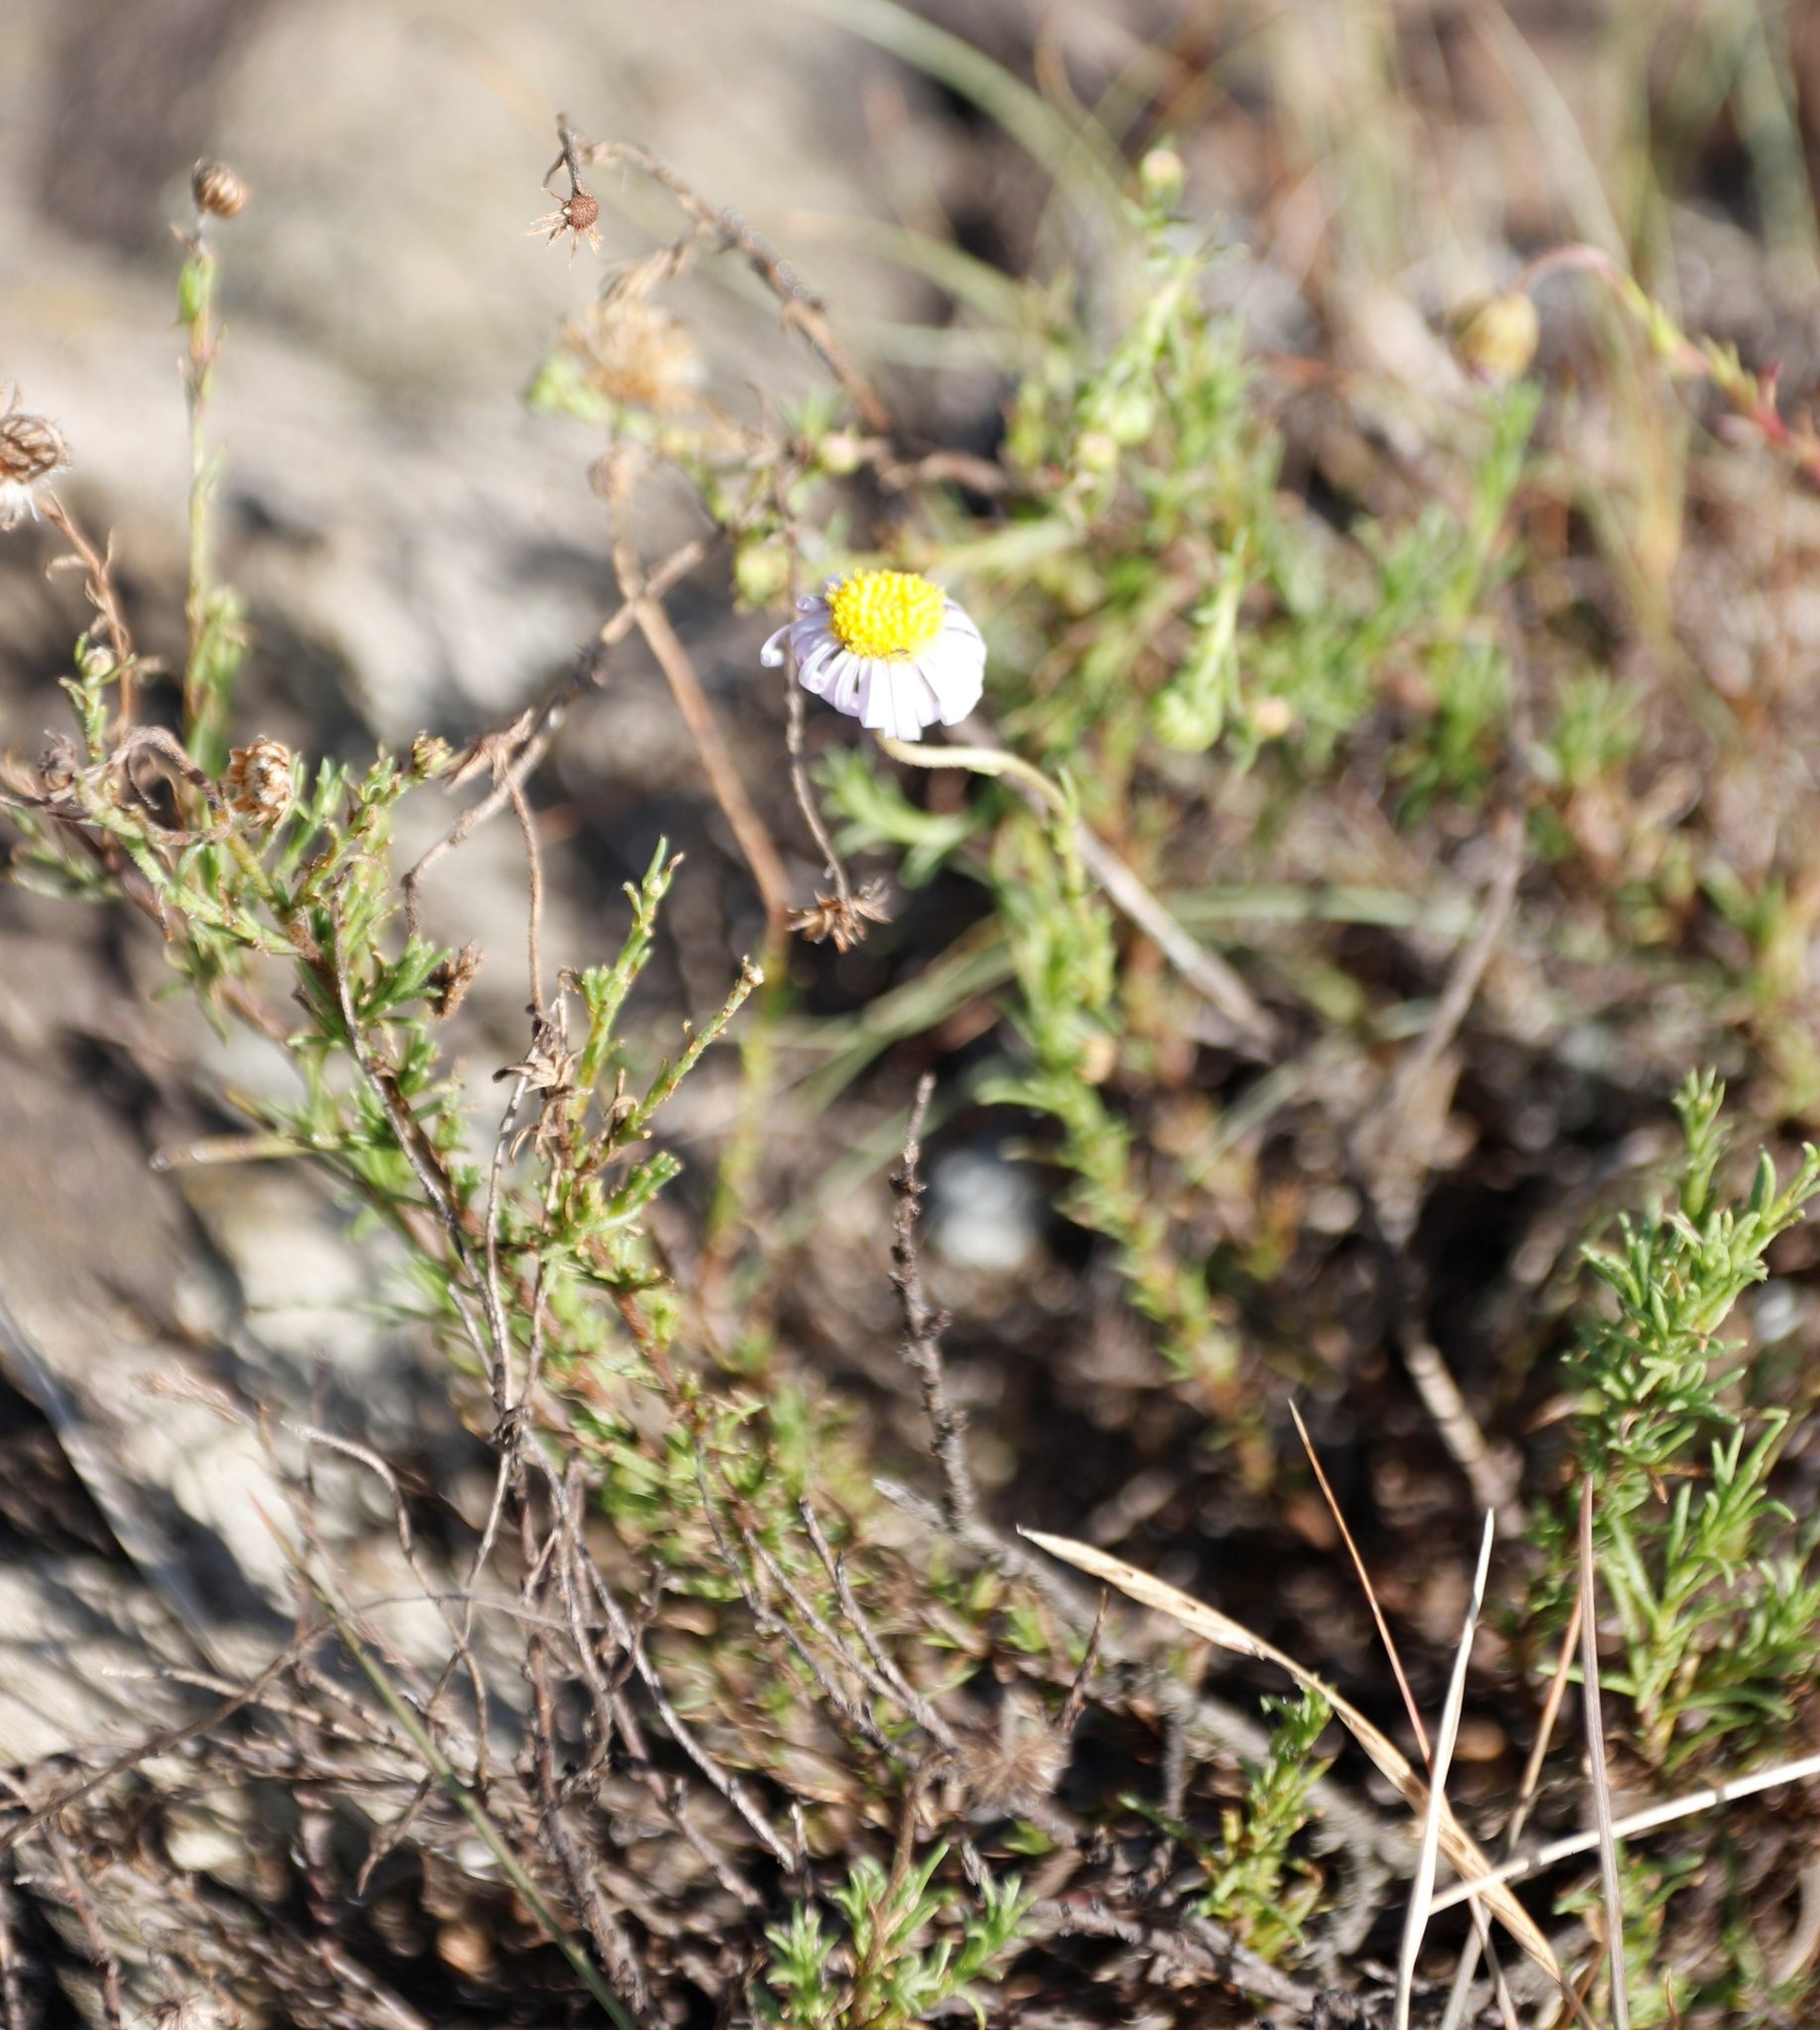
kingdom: Plantae
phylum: Tracheophyta
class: Magnoliopsida
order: Asterales
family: Asteraceae
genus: Felicia
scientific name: Felicia filifolia
